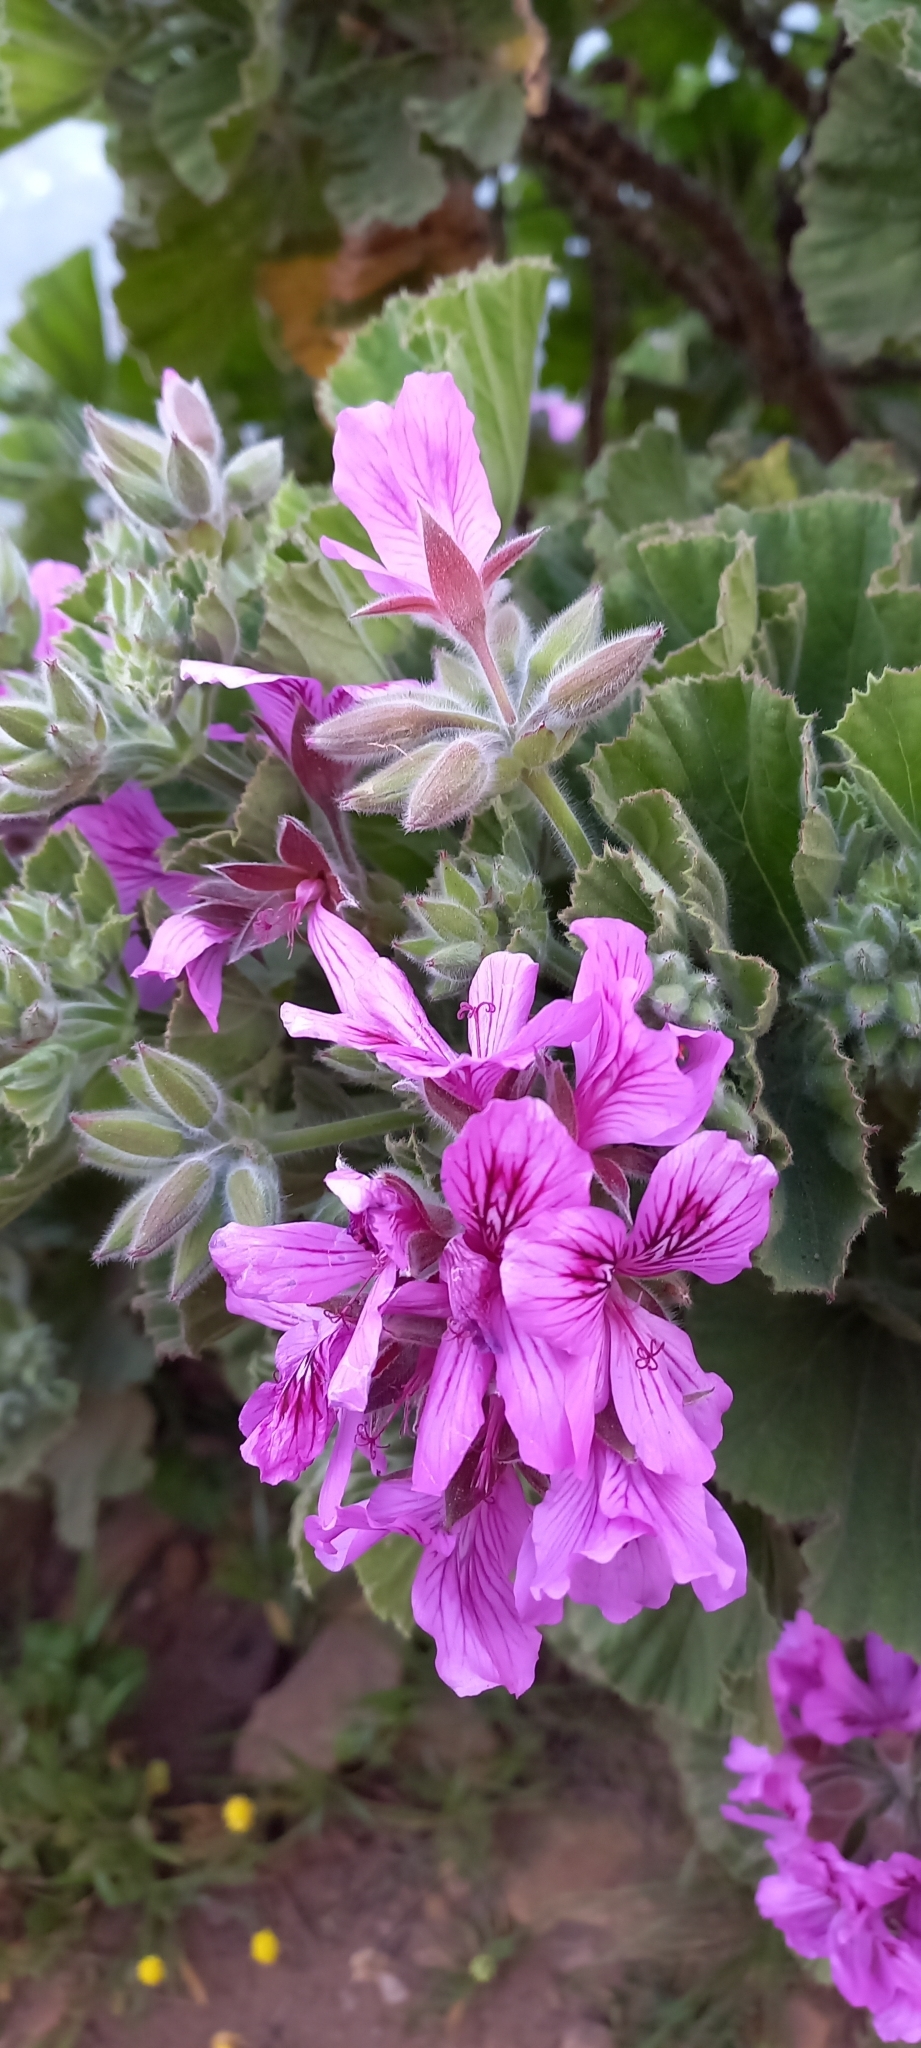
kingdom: Plantae
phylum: Tracheophyta
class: Magnoliopsida
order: Geraniales
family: Geraniaceae
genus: Pelargonium
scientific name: Pelargonium cucullatum
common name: Tree pelargonium
